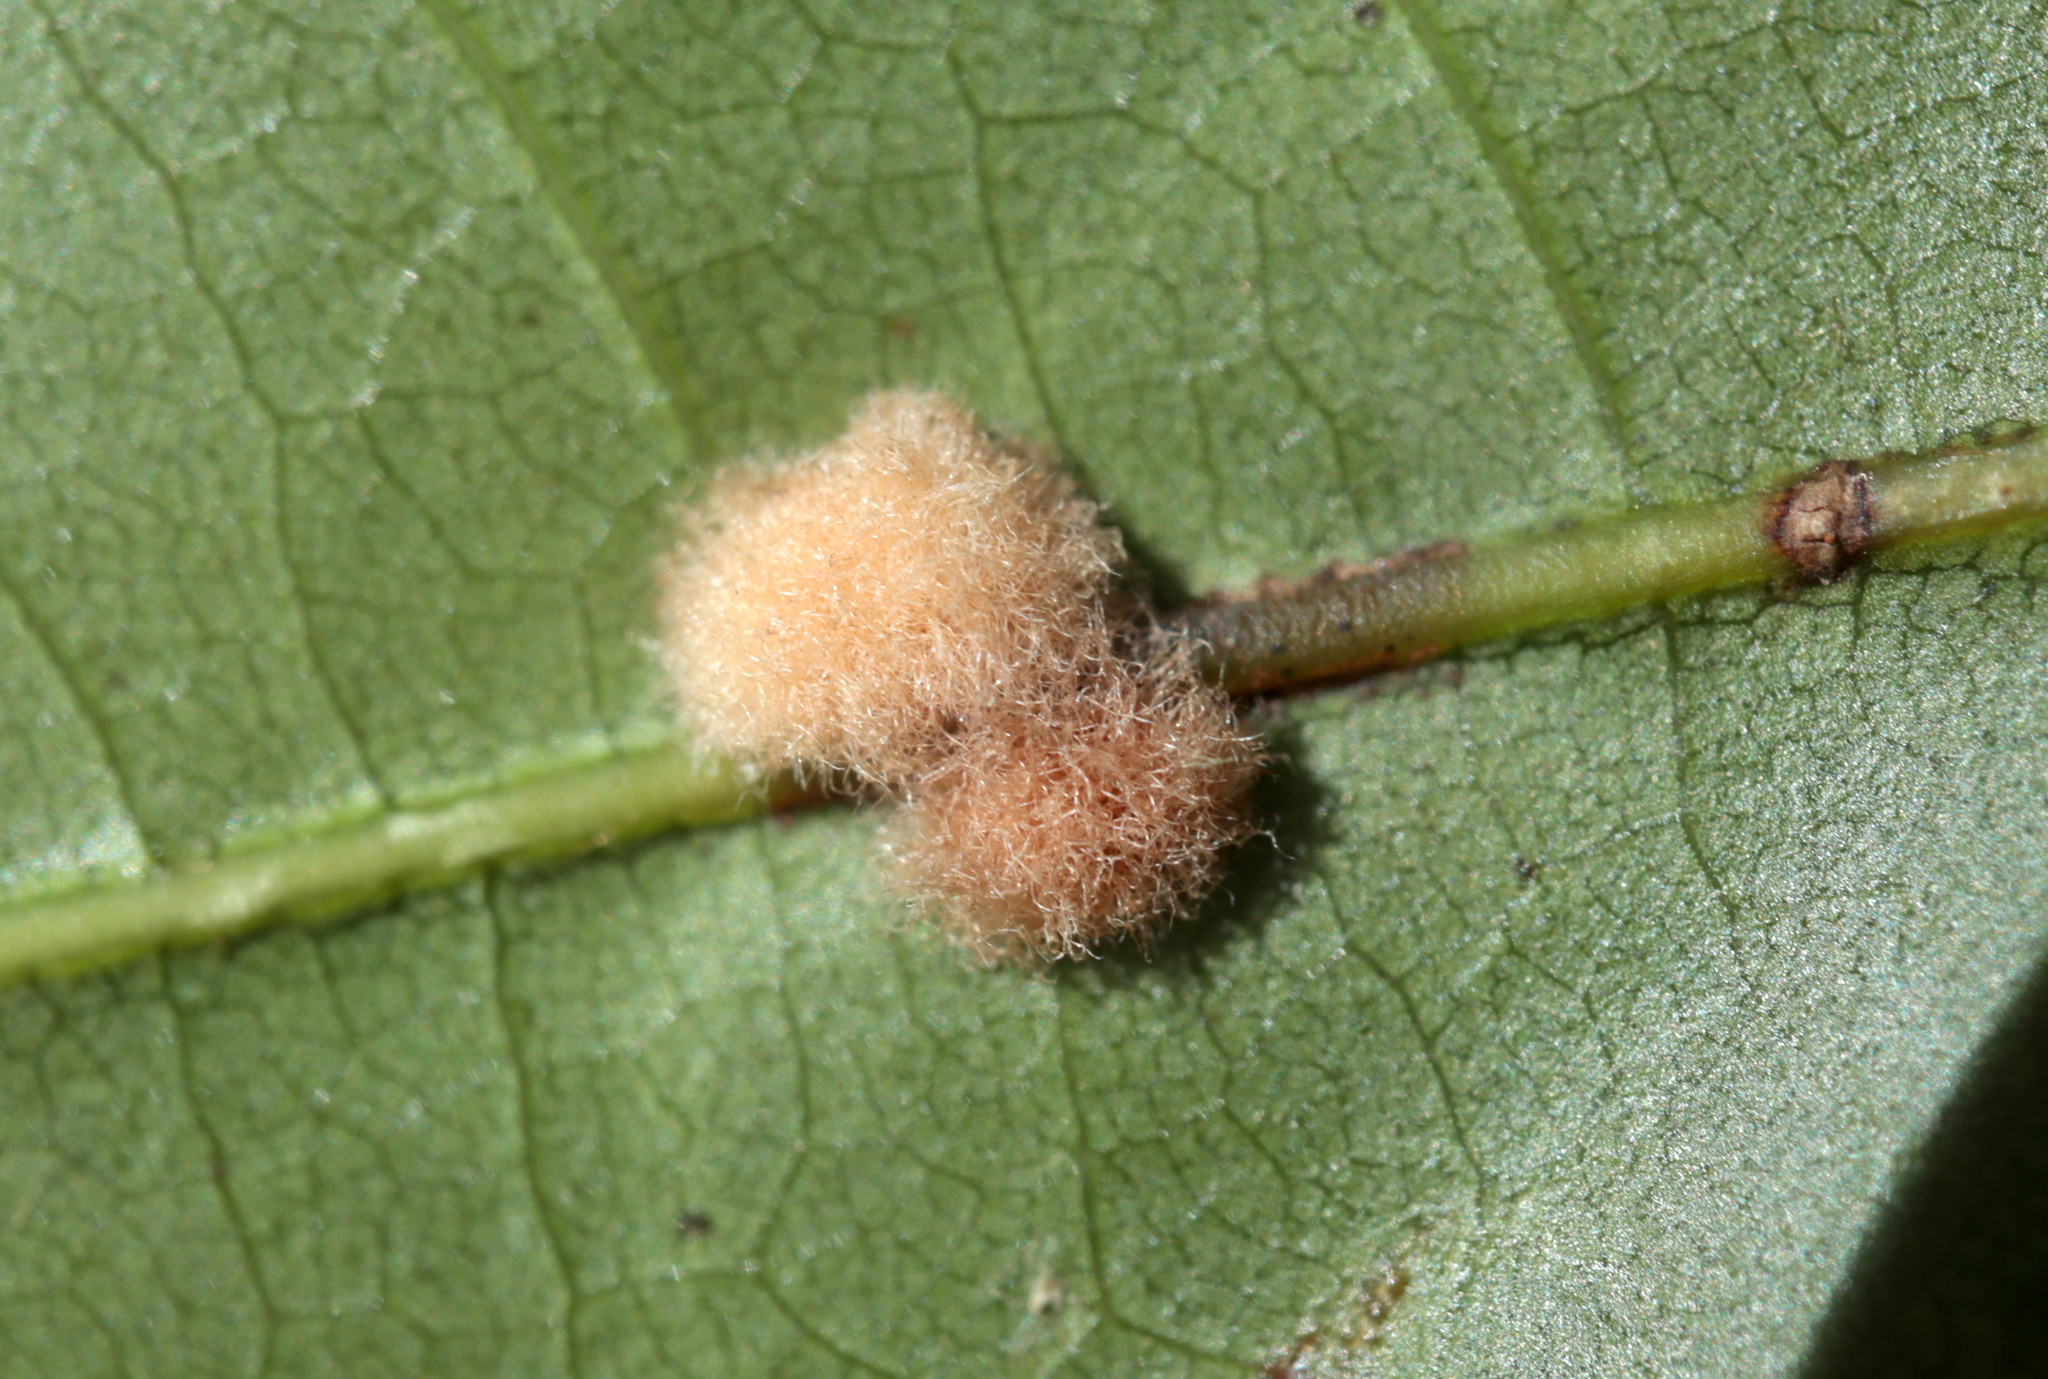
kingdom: Animalia
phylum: Arthropoda
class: Insecta
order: Hymenoptera
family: Cynipidae
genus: Callirhytis
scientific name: Callirhytis
